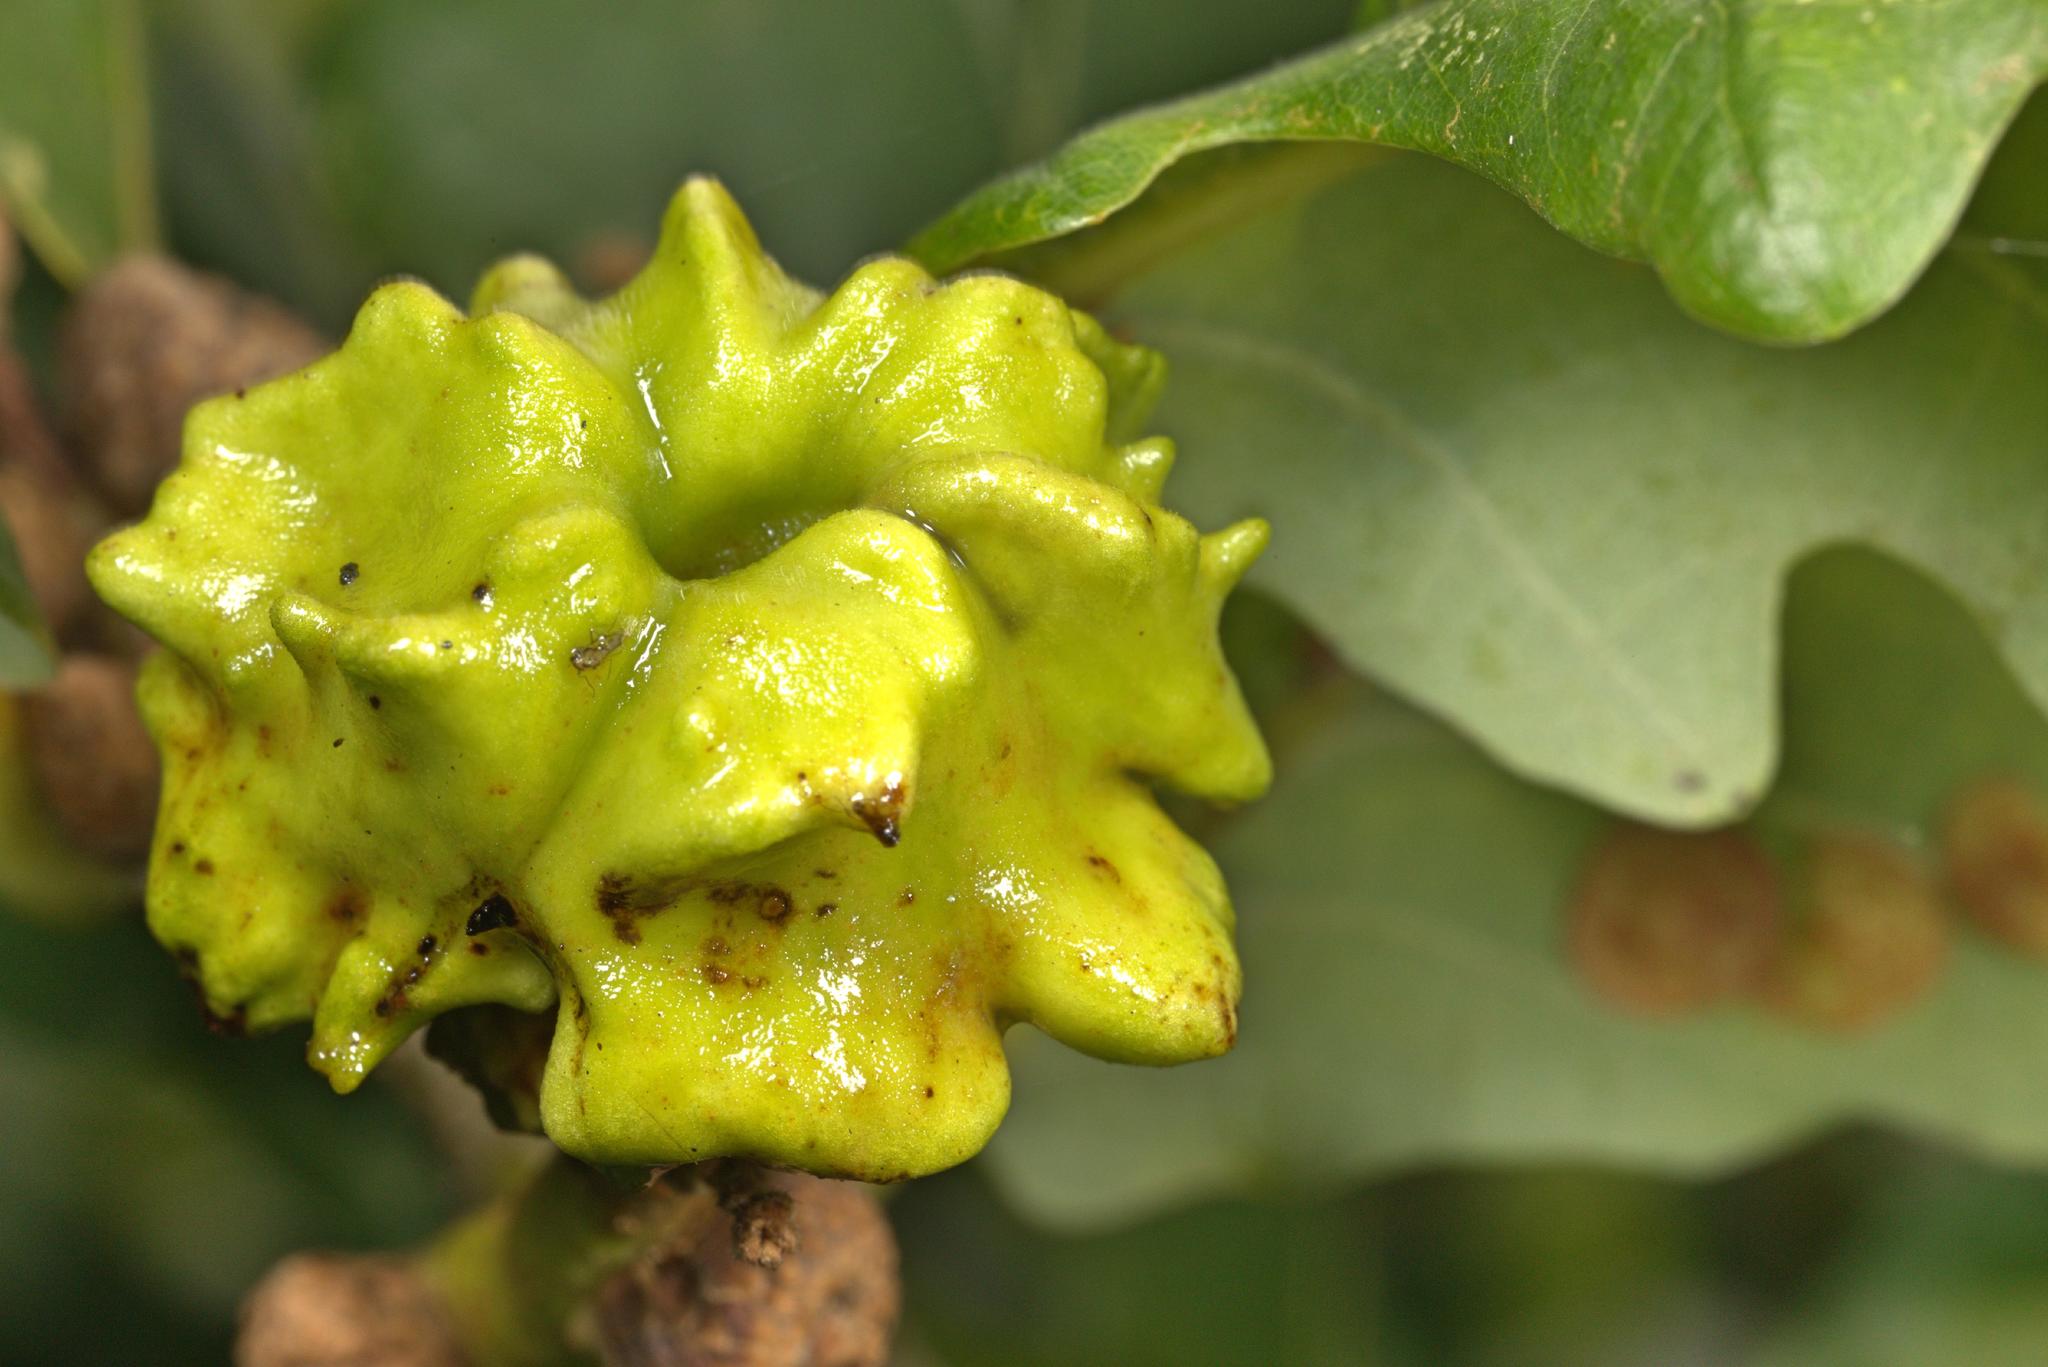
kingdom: Animalia
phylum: Arthropoda
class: Insecta
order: Hymenoptera
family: Cynipidae
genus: Andricus
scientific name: Andricus quercuscalicis
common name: Knopper gall
